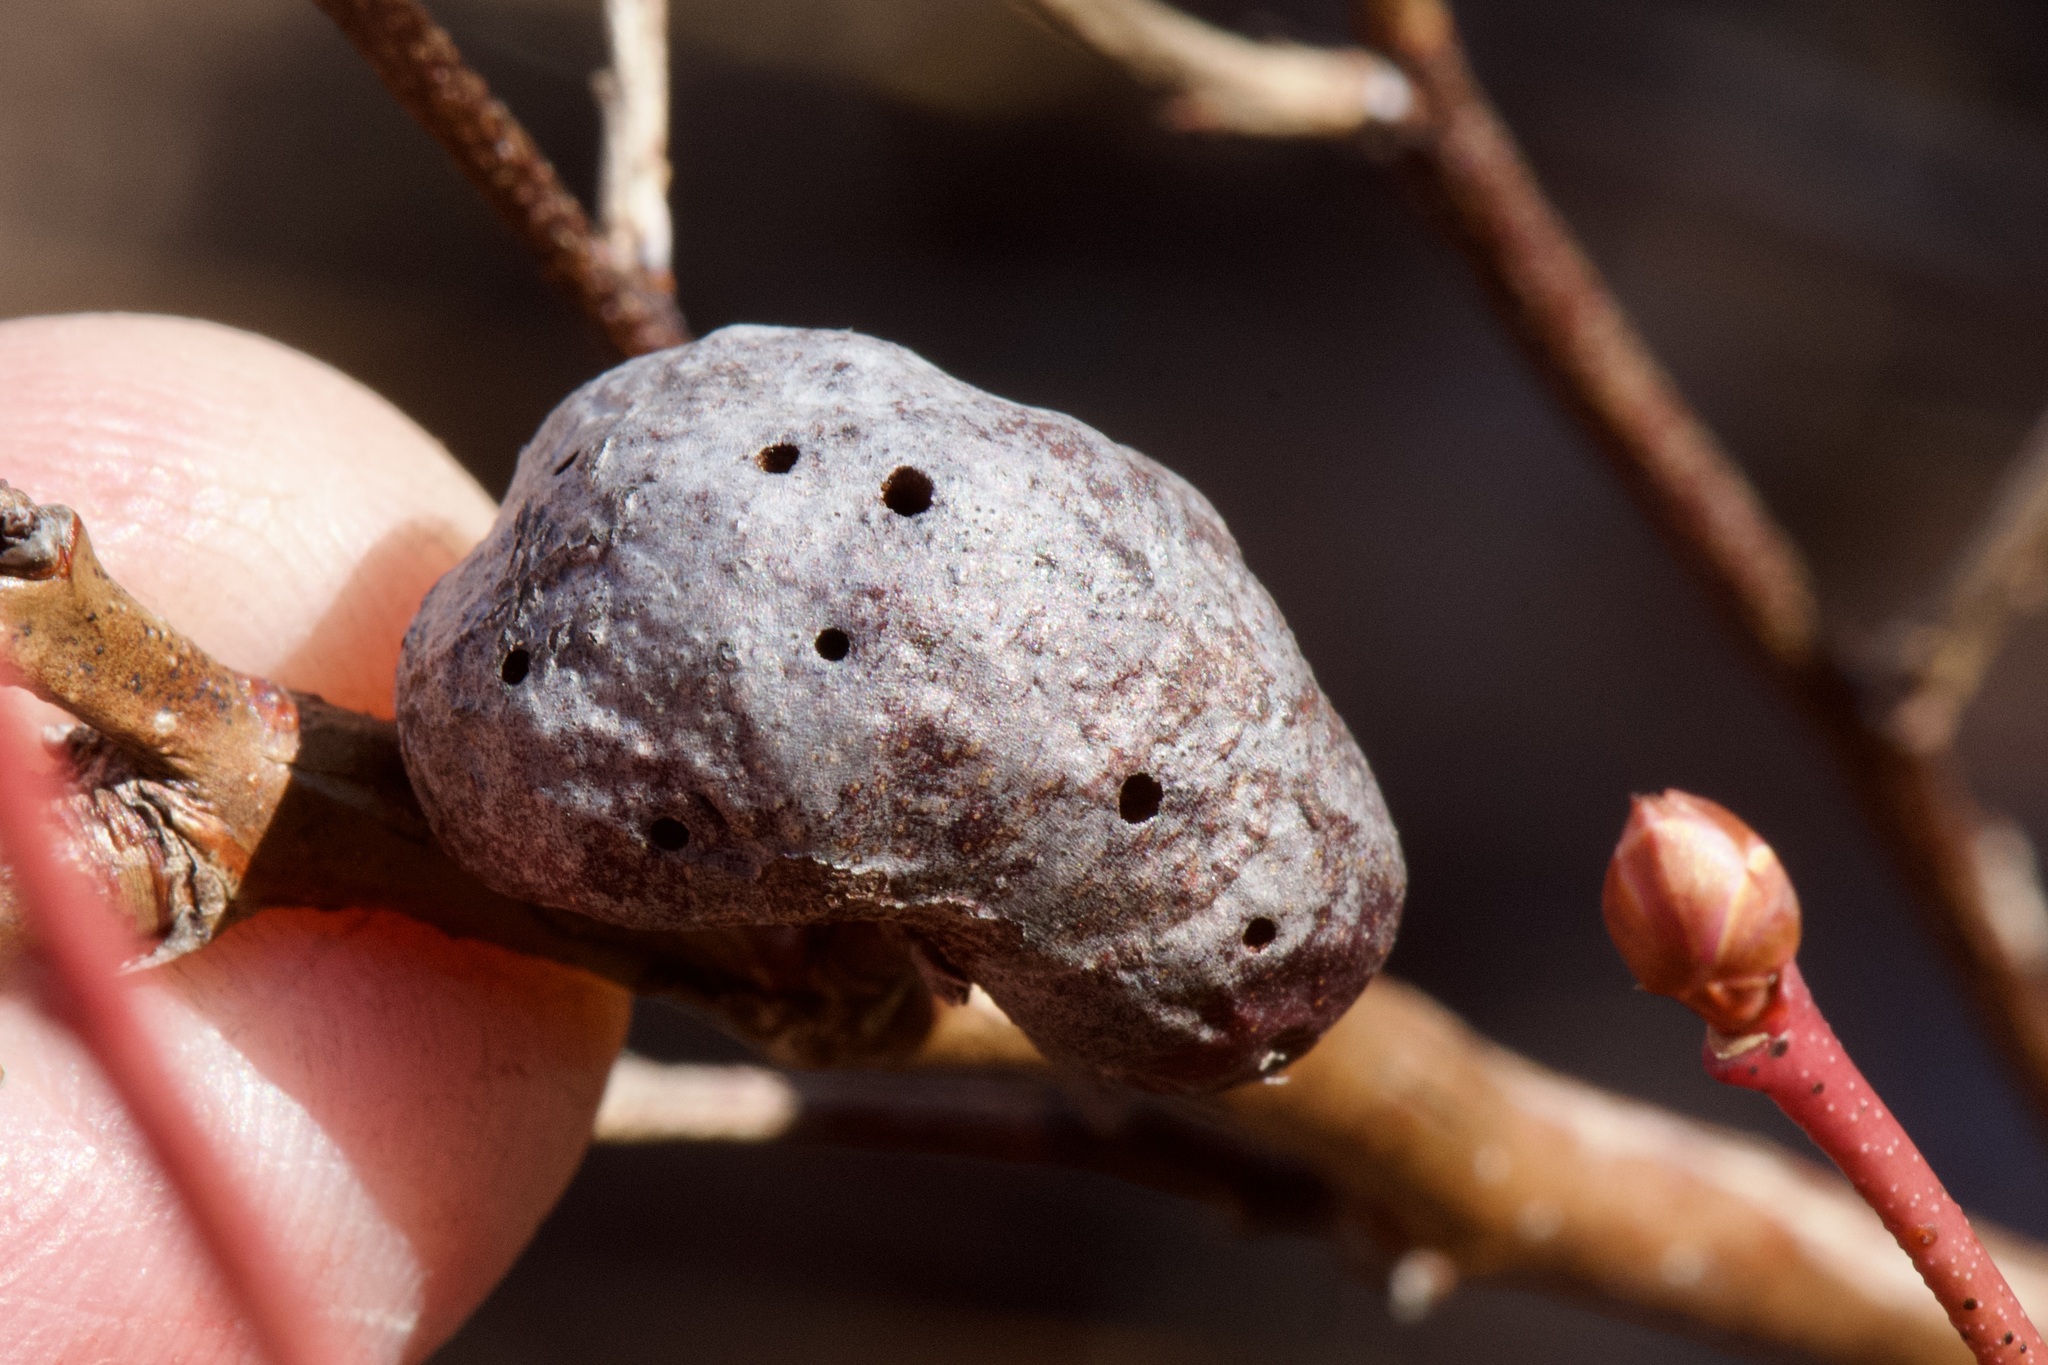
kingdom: Animalia
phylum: Arthropoda
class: Insecta
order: Hymenoptera
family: Pteromalidae
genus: Hemadas
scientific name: Hemadas nubilipennis
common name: Blueberry stem gall wasp
